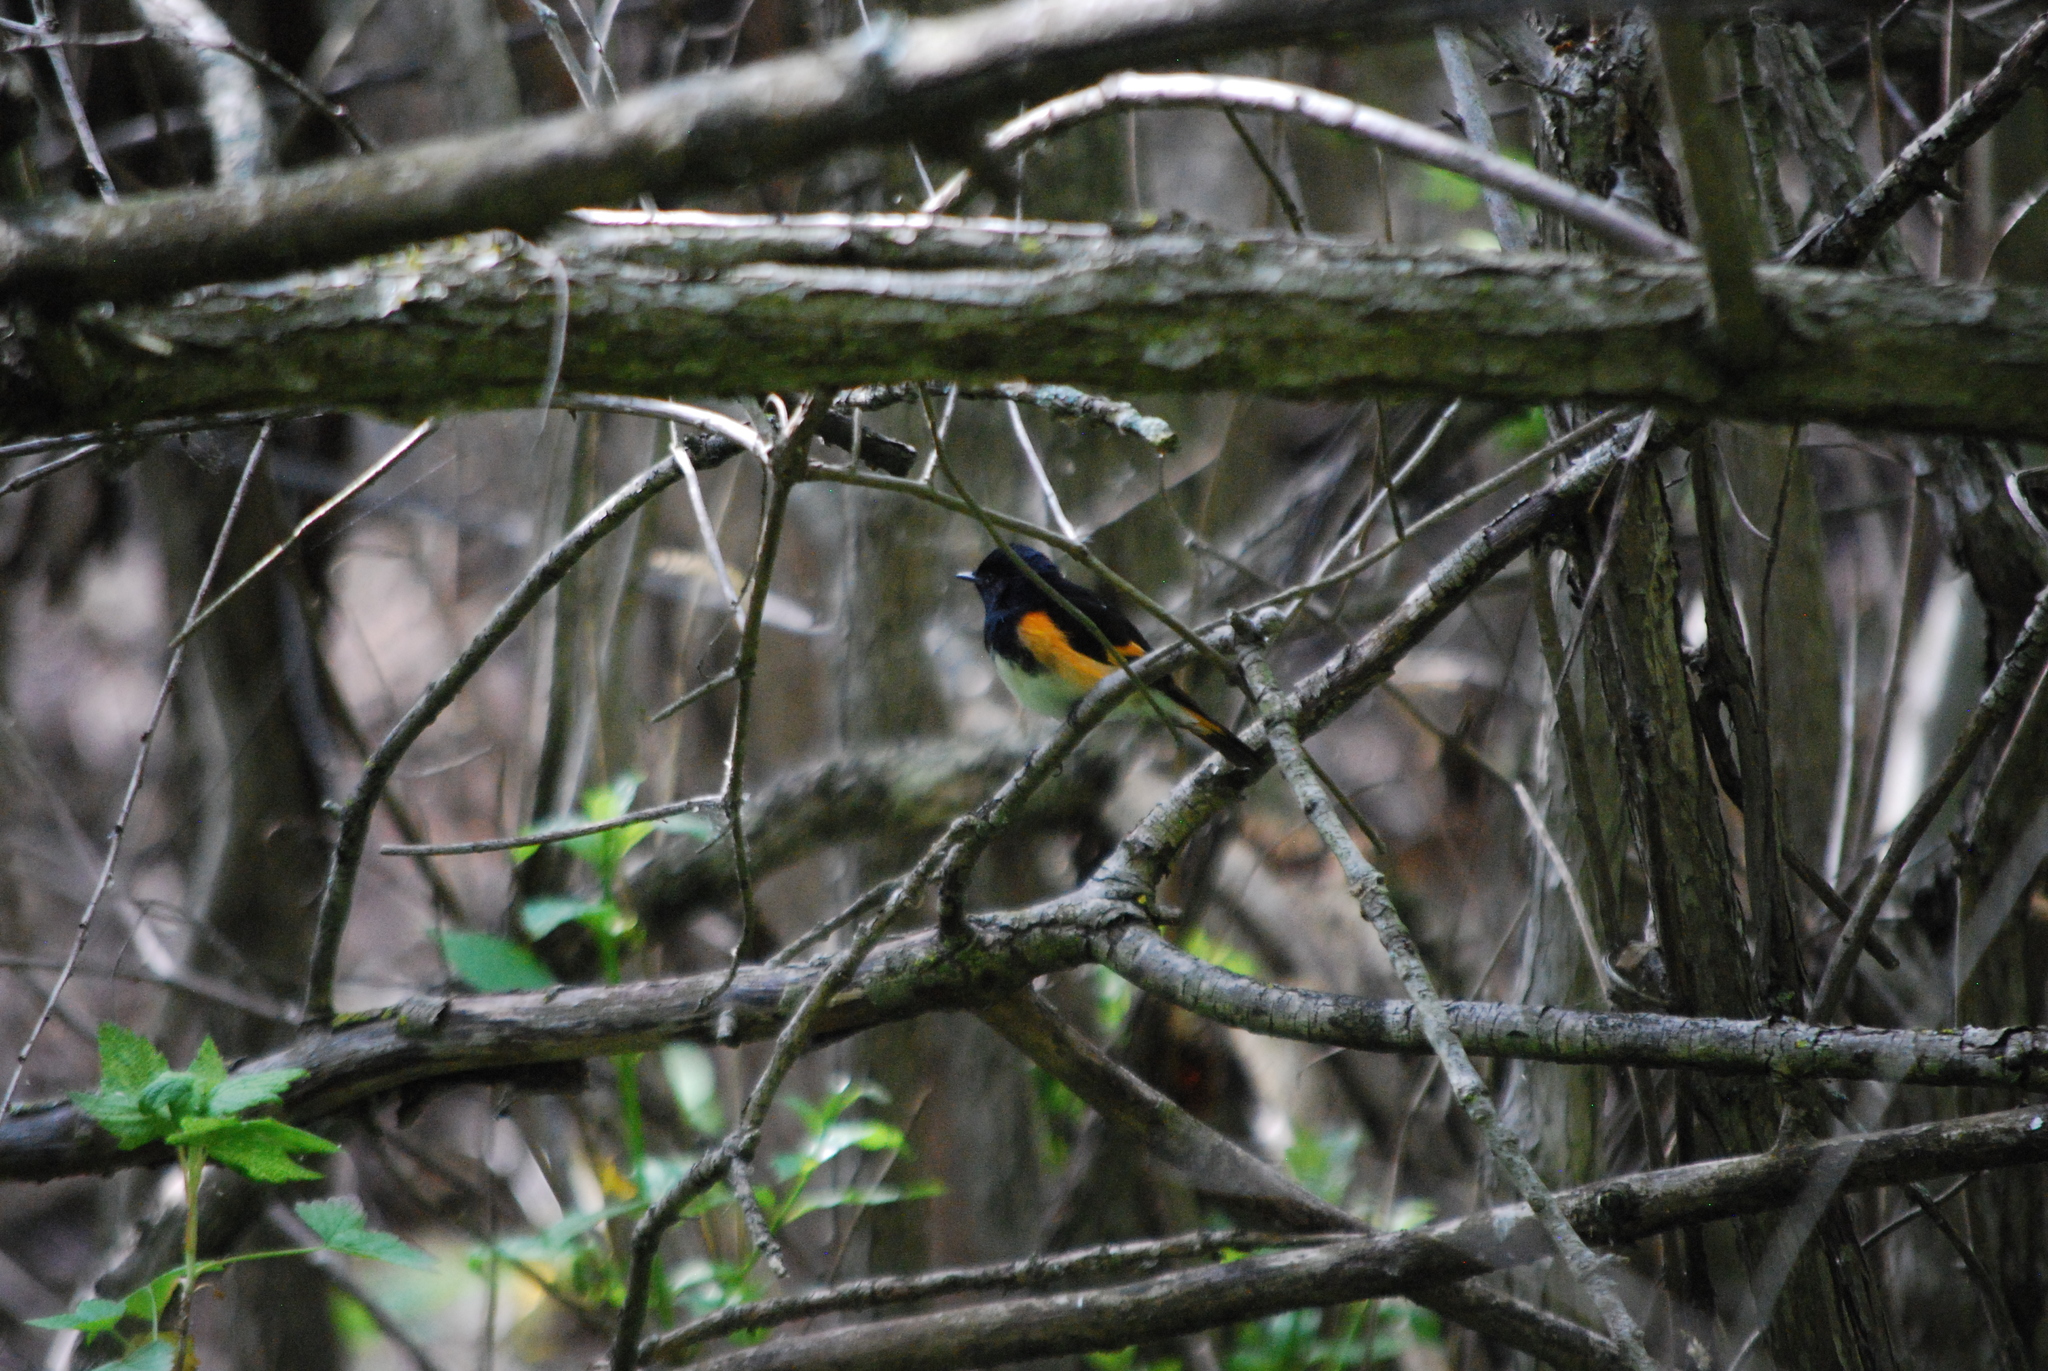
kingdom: Animalia
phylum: Chordata
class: Aves
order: Passeriformes
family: Parulidae
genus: Setophaga
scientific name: Setophaga ruticilla
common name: American redstart
